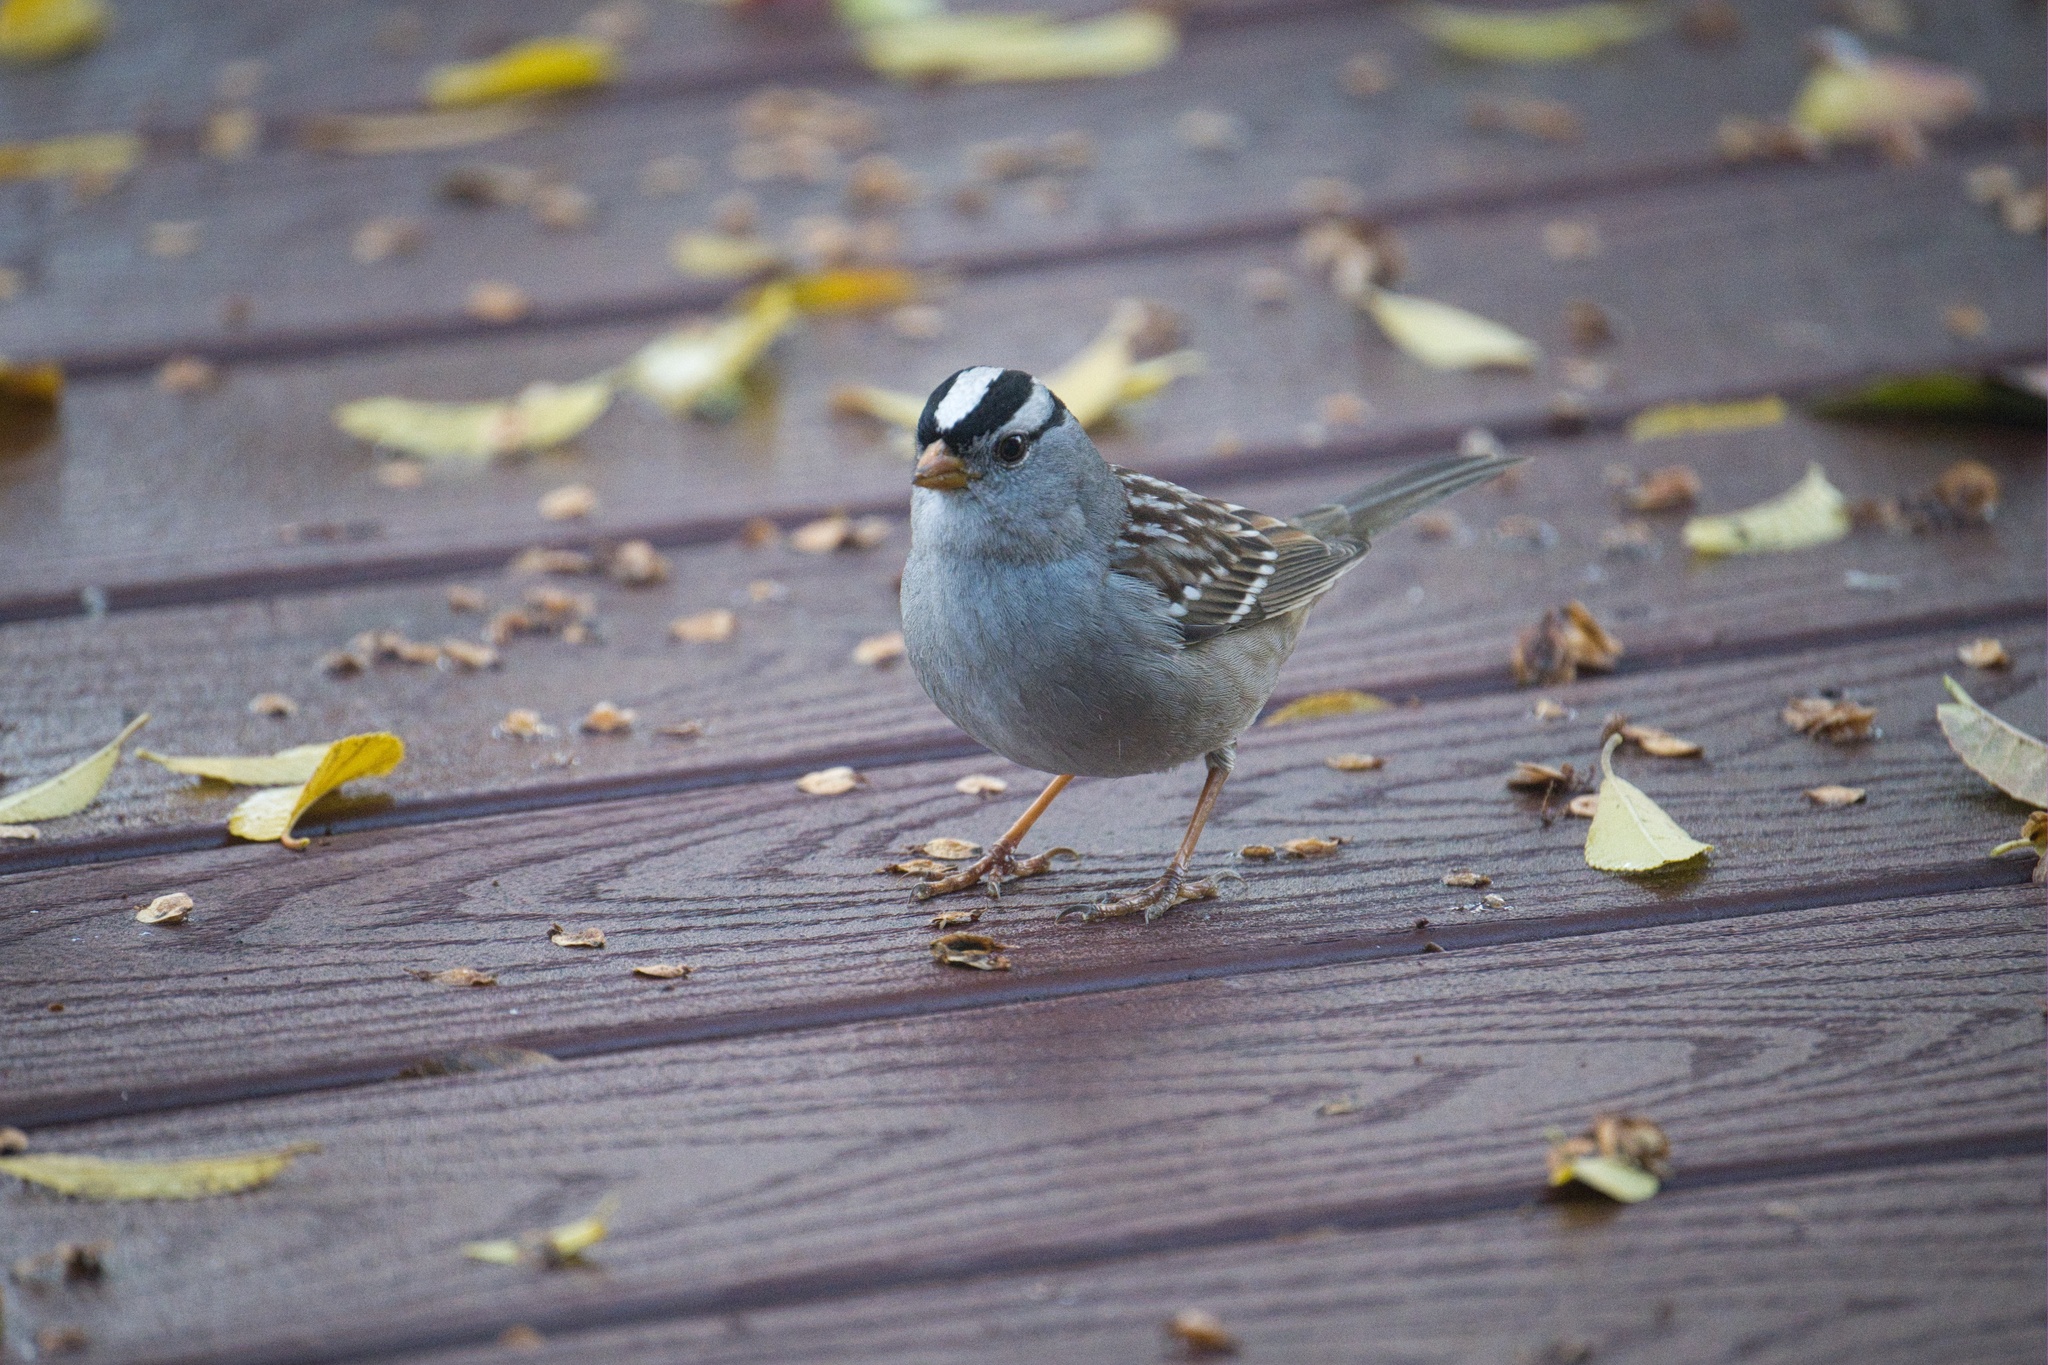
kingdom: Animalia
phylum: Chordata
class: Aves
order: Passeriformes
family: Passerellidae
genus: Zonotrichia
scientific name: Zonotrichia leucophrys
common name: White-crowned sparrow
